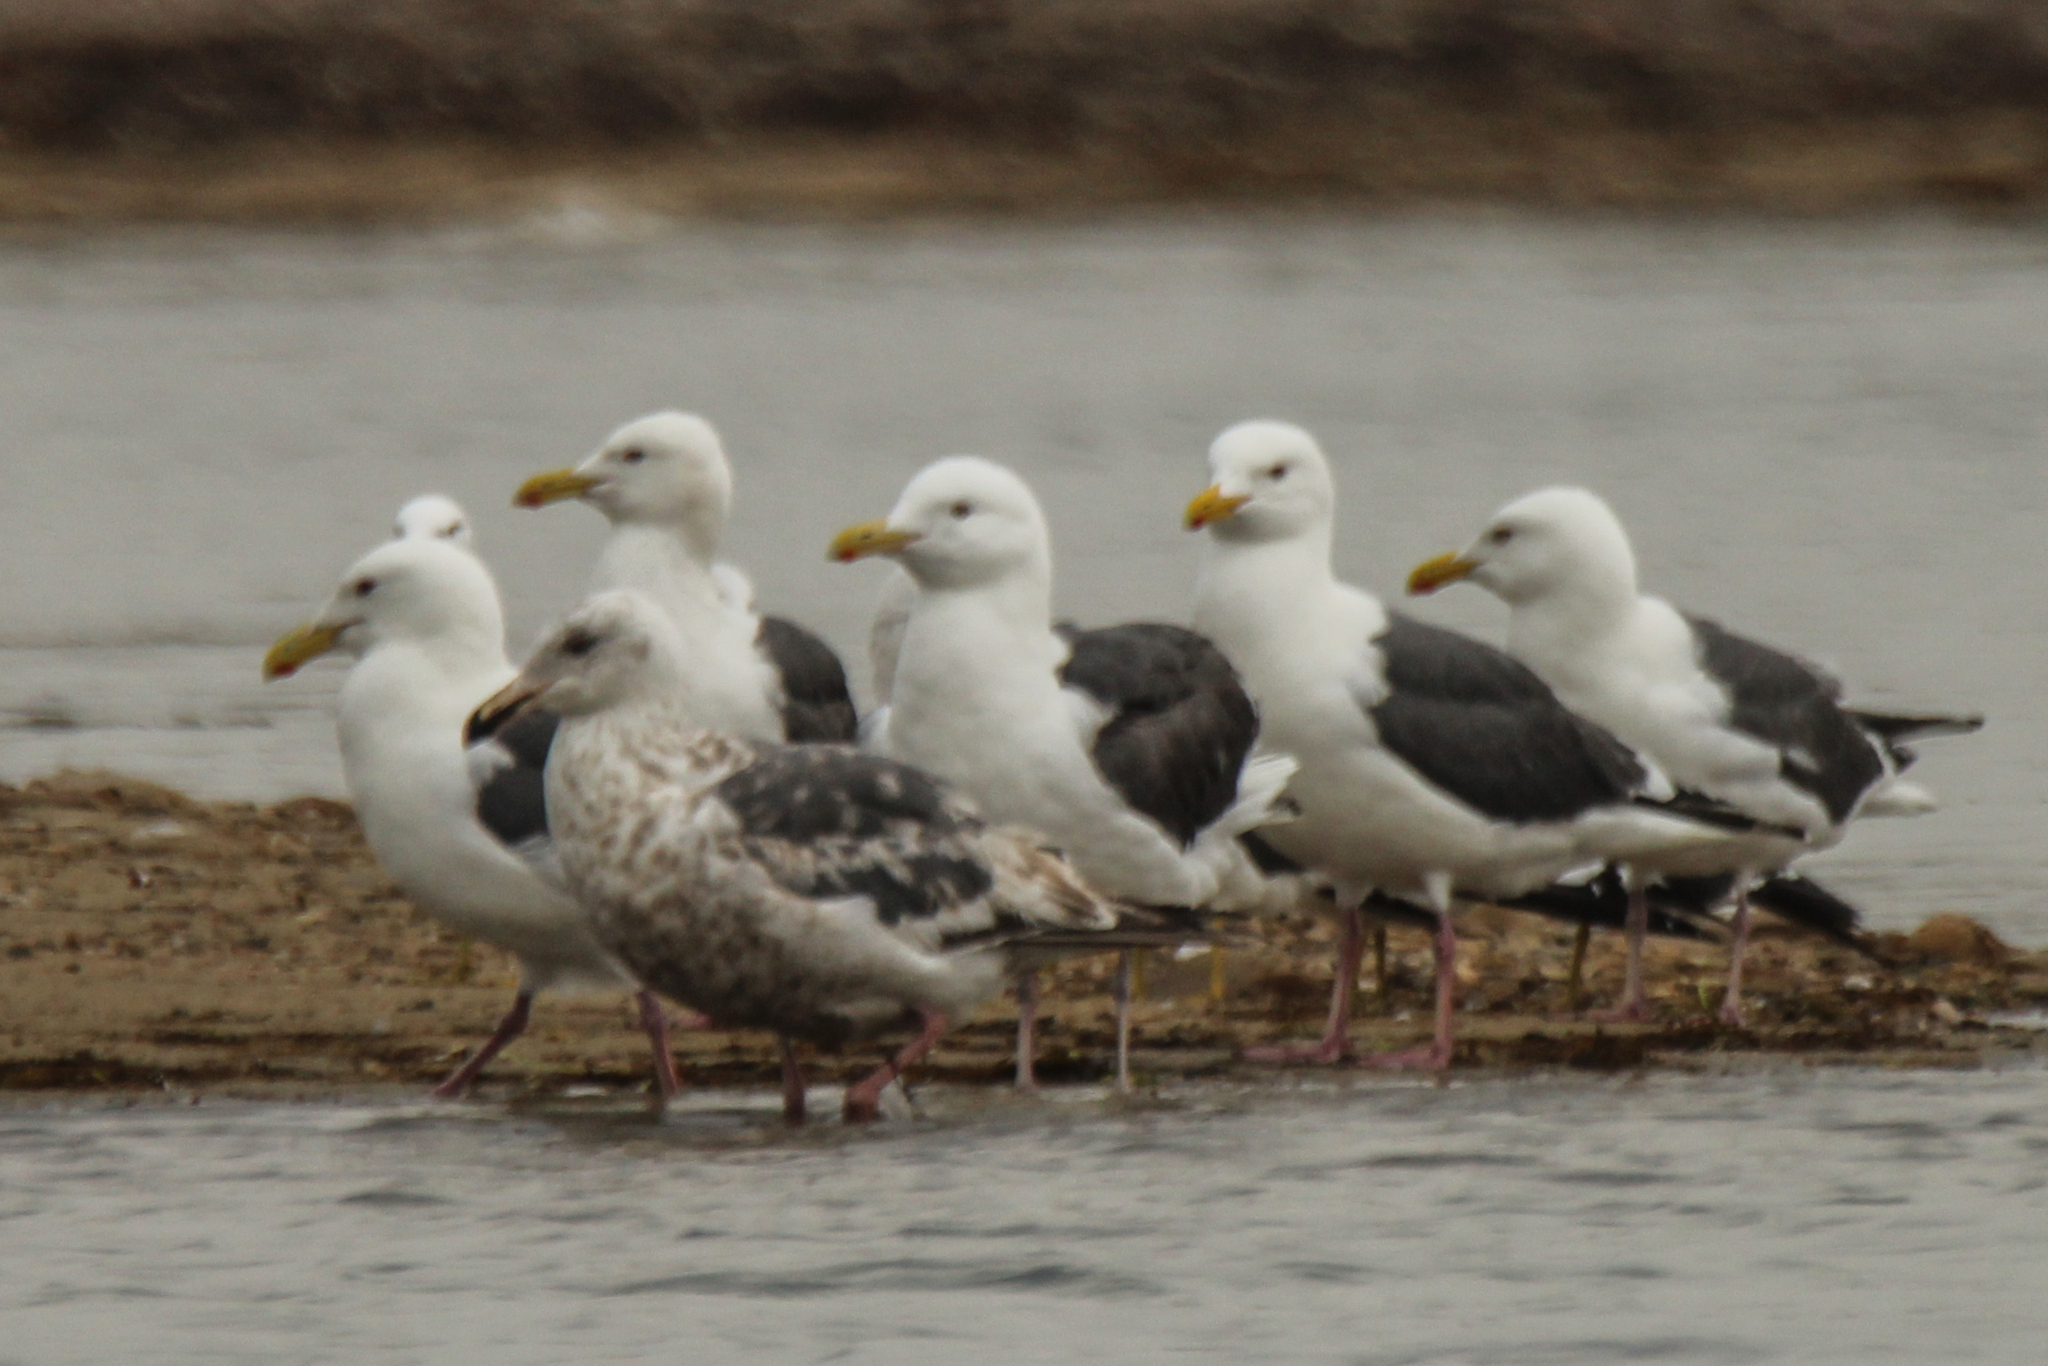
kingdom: Animalia
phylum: Chordata
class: Aves
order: Charadriiformes
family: Laridae
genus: Larus
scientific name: Larus schistisagus
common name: Slaty-backed gull
